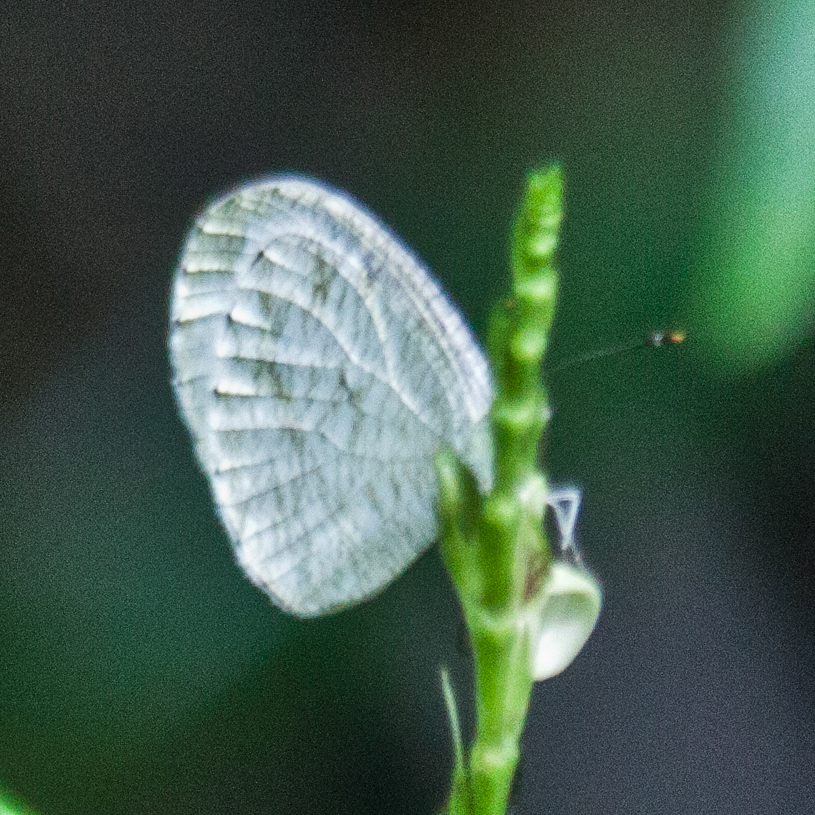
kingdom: Animalia
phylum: Arthropoda
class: Insecta
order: Lepidoptera
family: Pieridae
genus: Leptosia
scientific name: Leptosia nina
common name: Psyche
